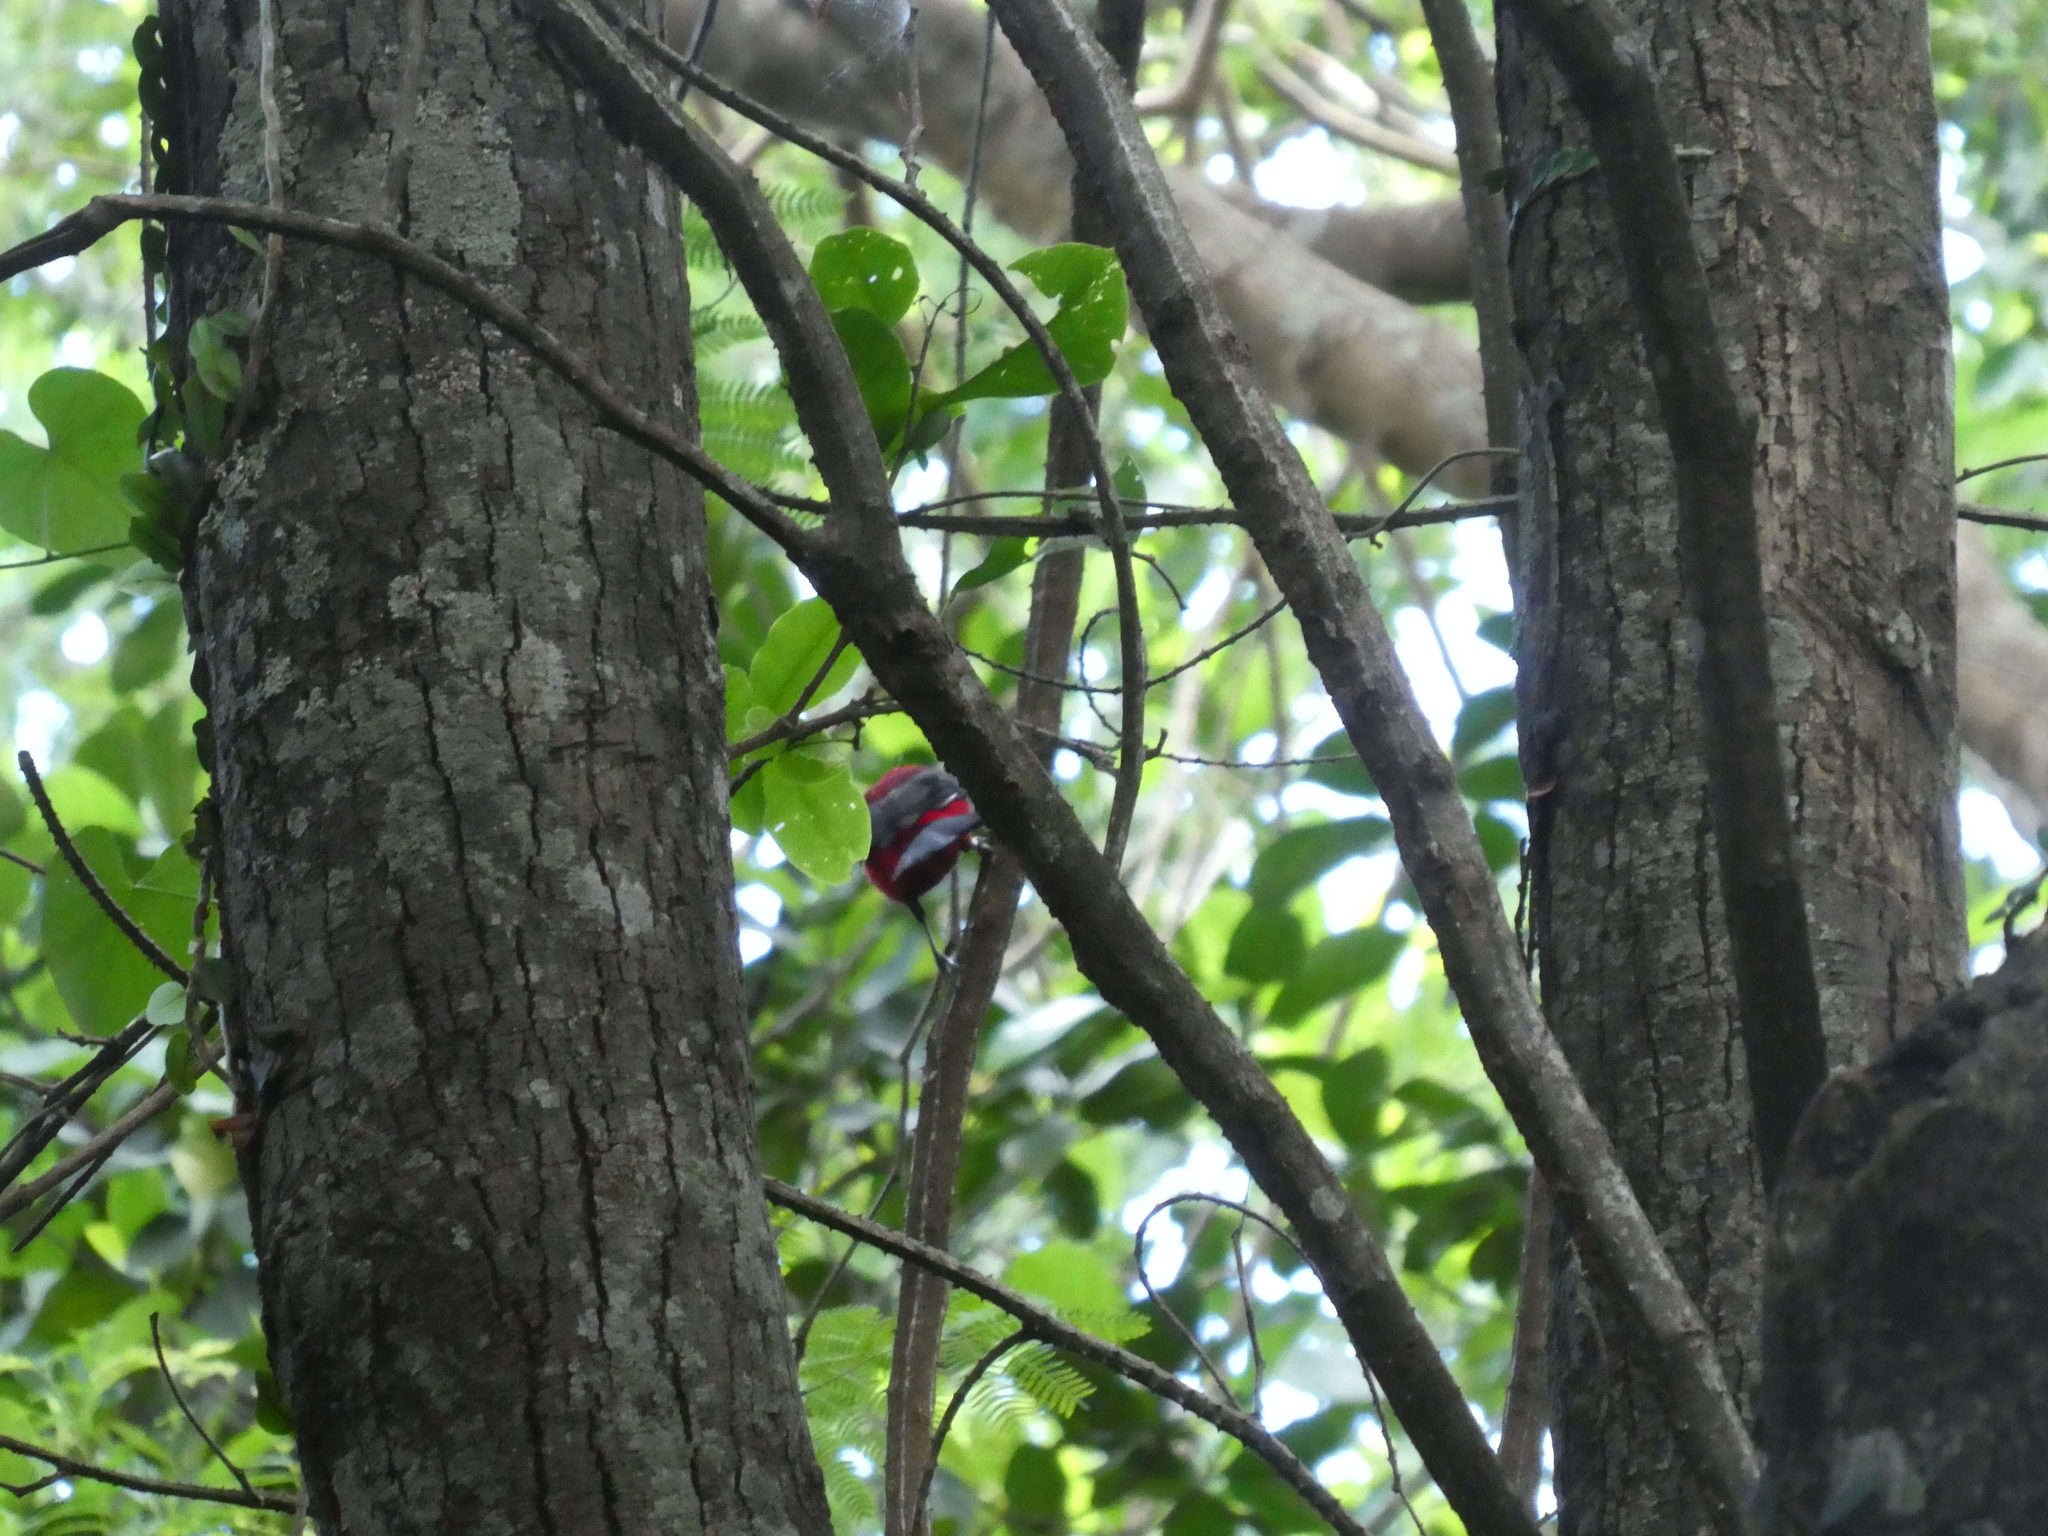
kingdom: Animalia
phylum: Chordata
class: Aves
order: Passeriformes
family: Thraupidae
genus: Ramphocelus
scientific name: Ramphocelus bresilia
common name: Brazilian tanager
